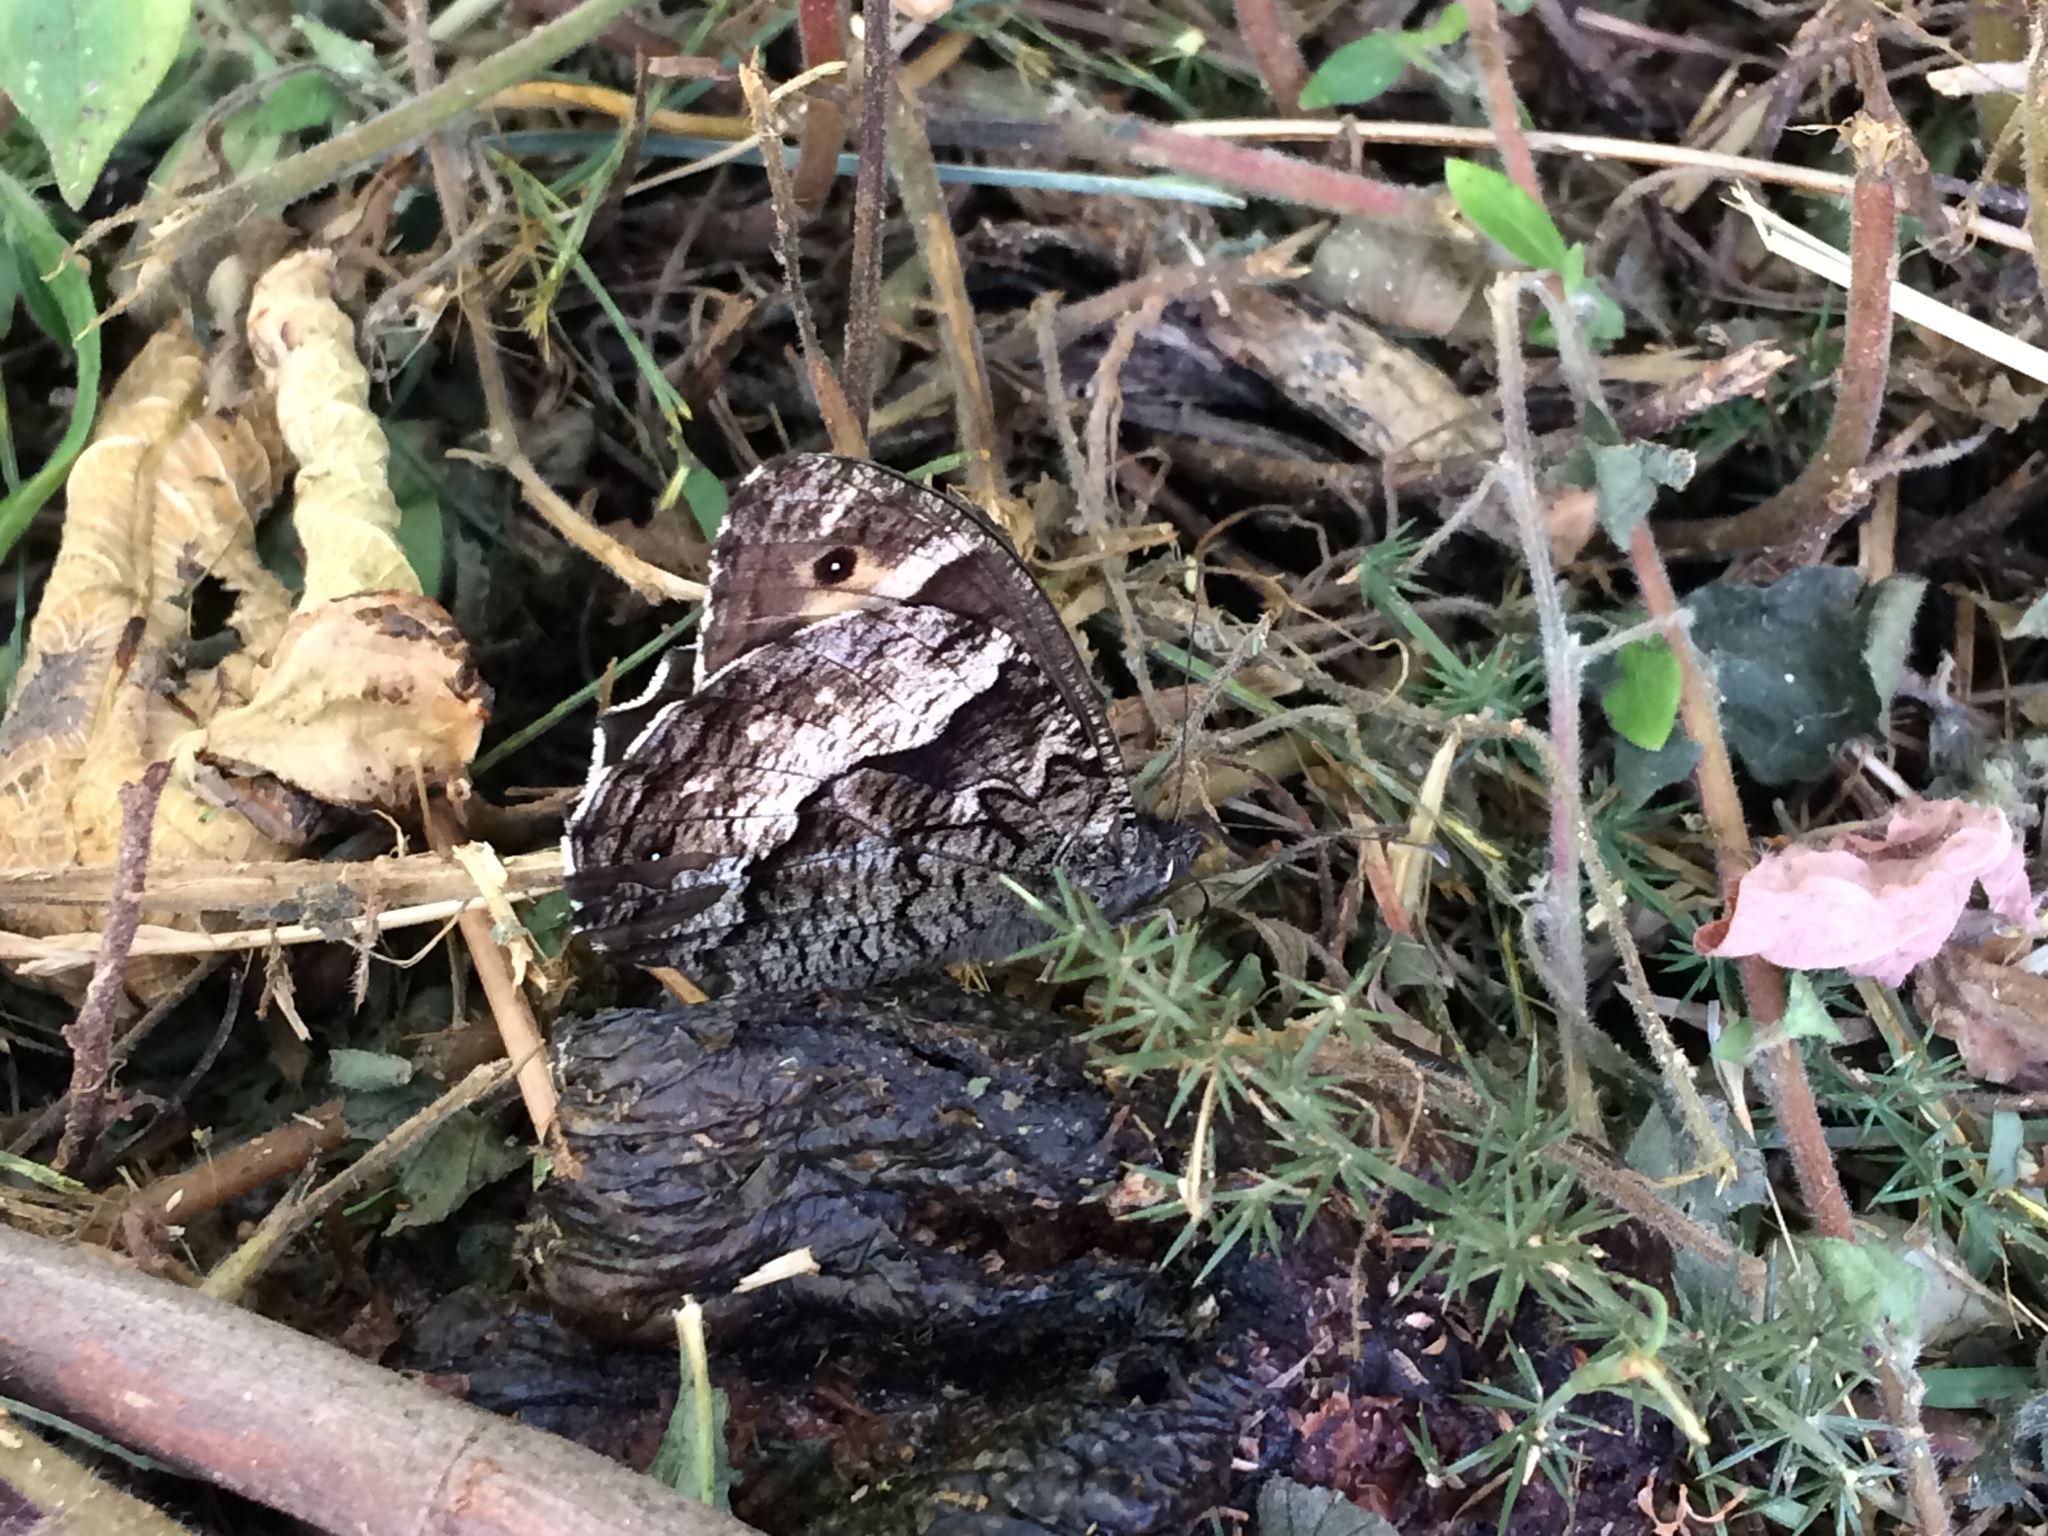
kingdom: Animalia
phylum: Arthropoda
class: Insecta
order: Lepidoptera
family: Nymphalidae
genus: Hipparchia
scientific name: Hipparchia syriaca
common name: Eastern rock grayling
